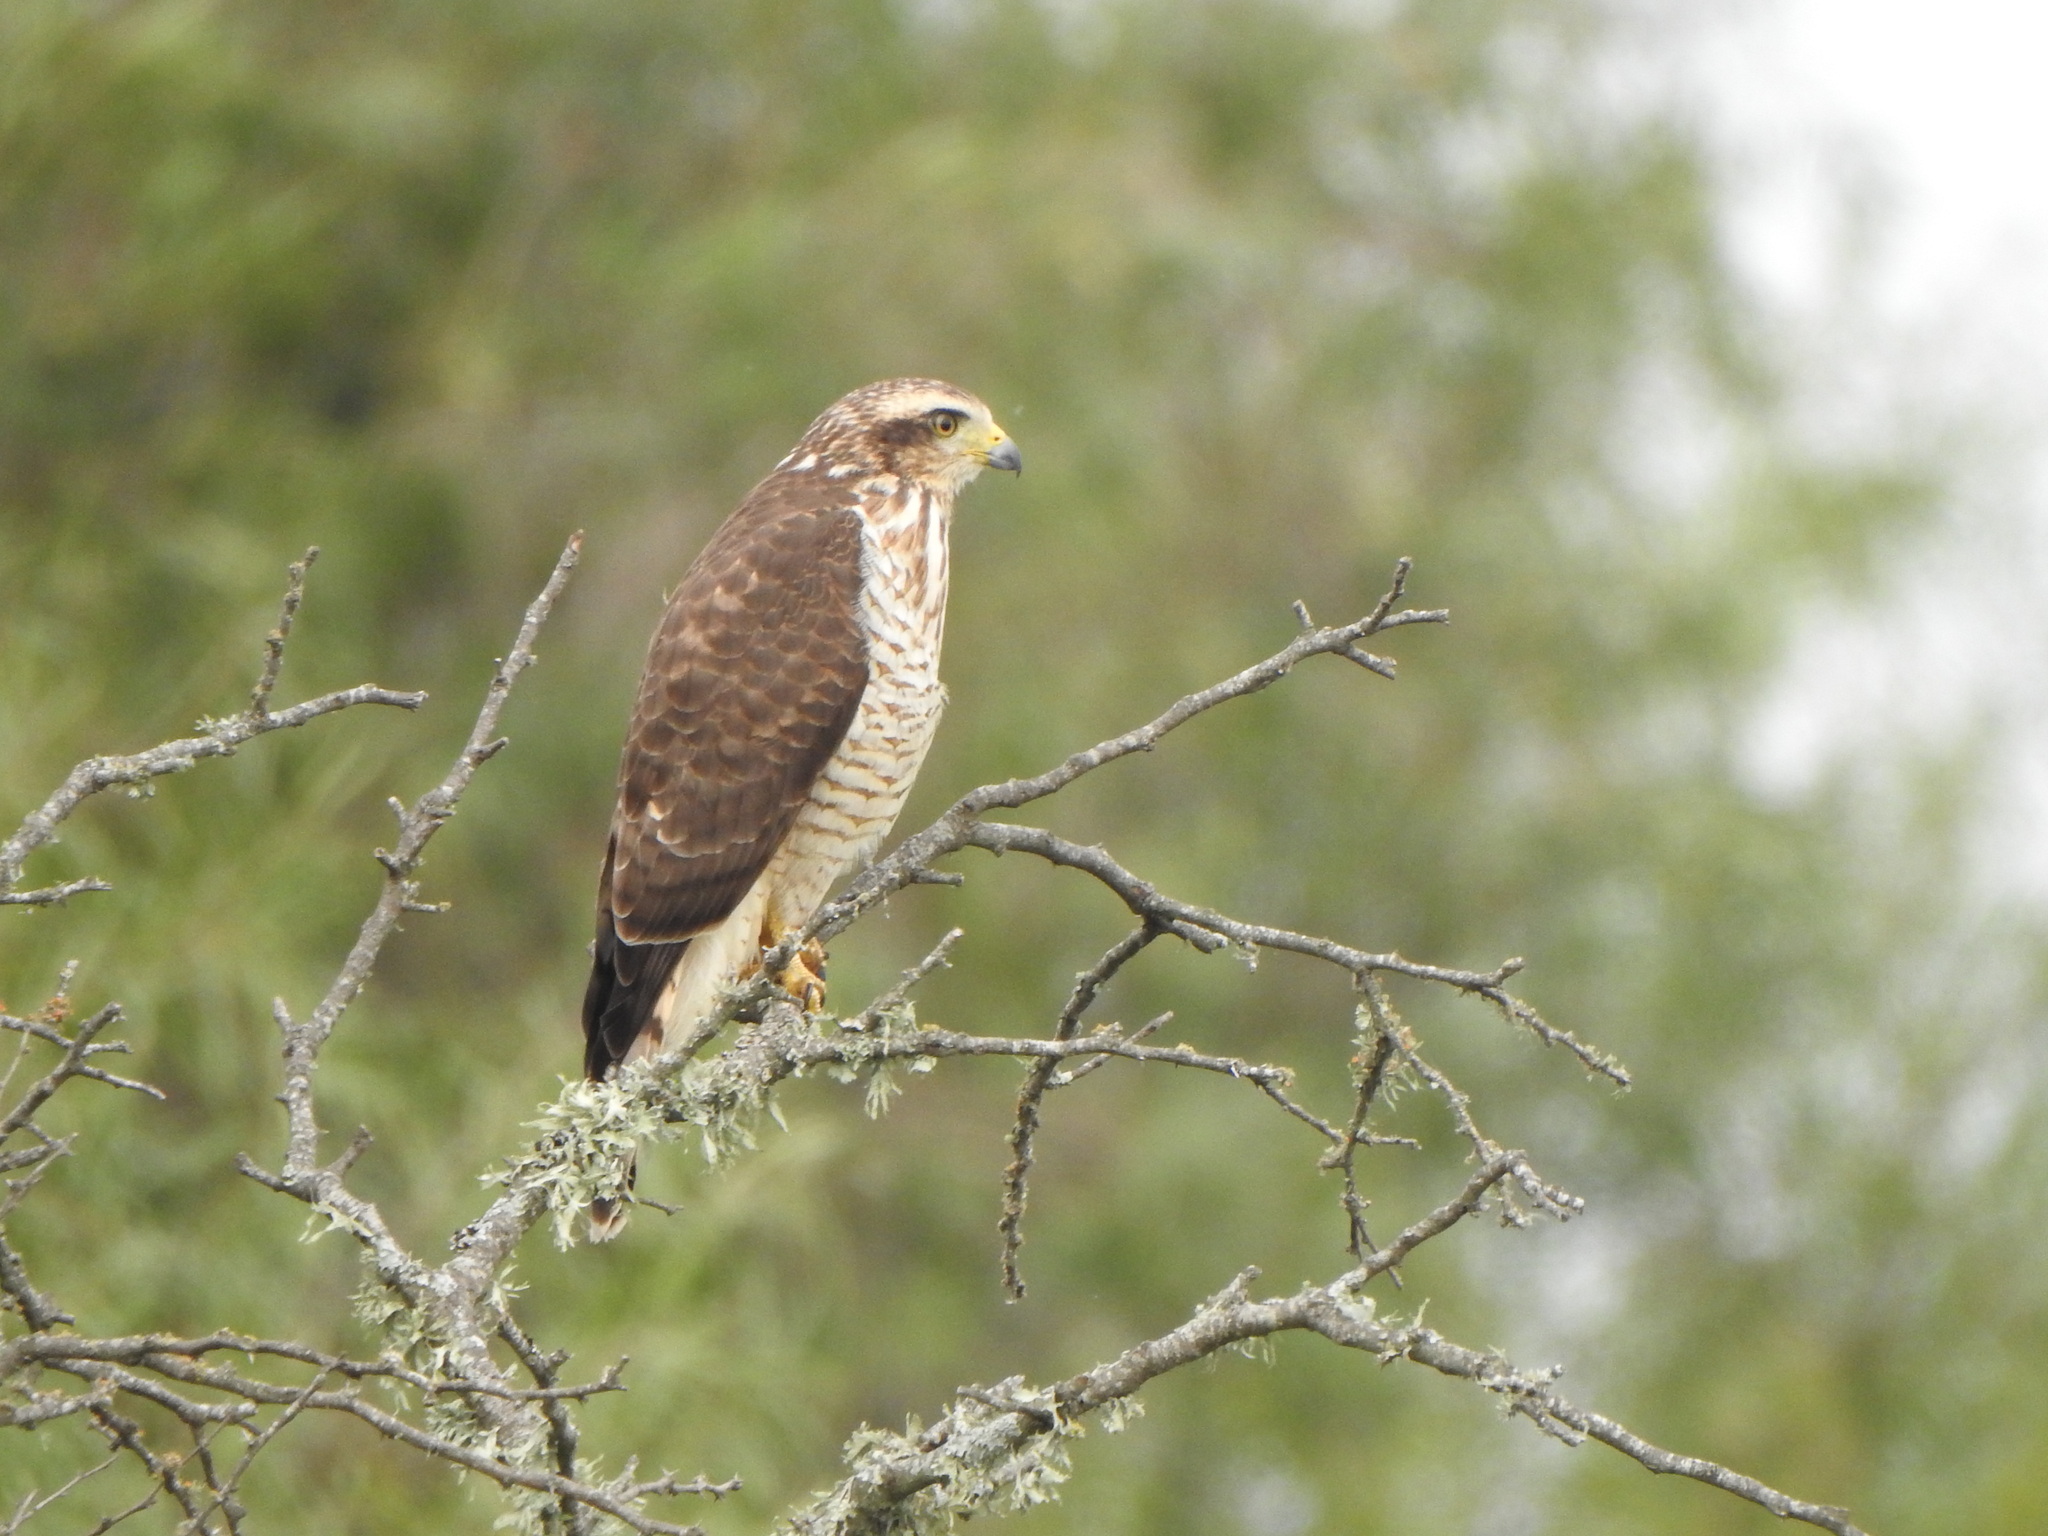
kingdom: Animalia
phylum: Chordata
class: Aves
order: Accipitriformes
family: Accipitridae
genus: Rupornis
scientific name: Rupornis magnirostris
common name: Roadside hawk
